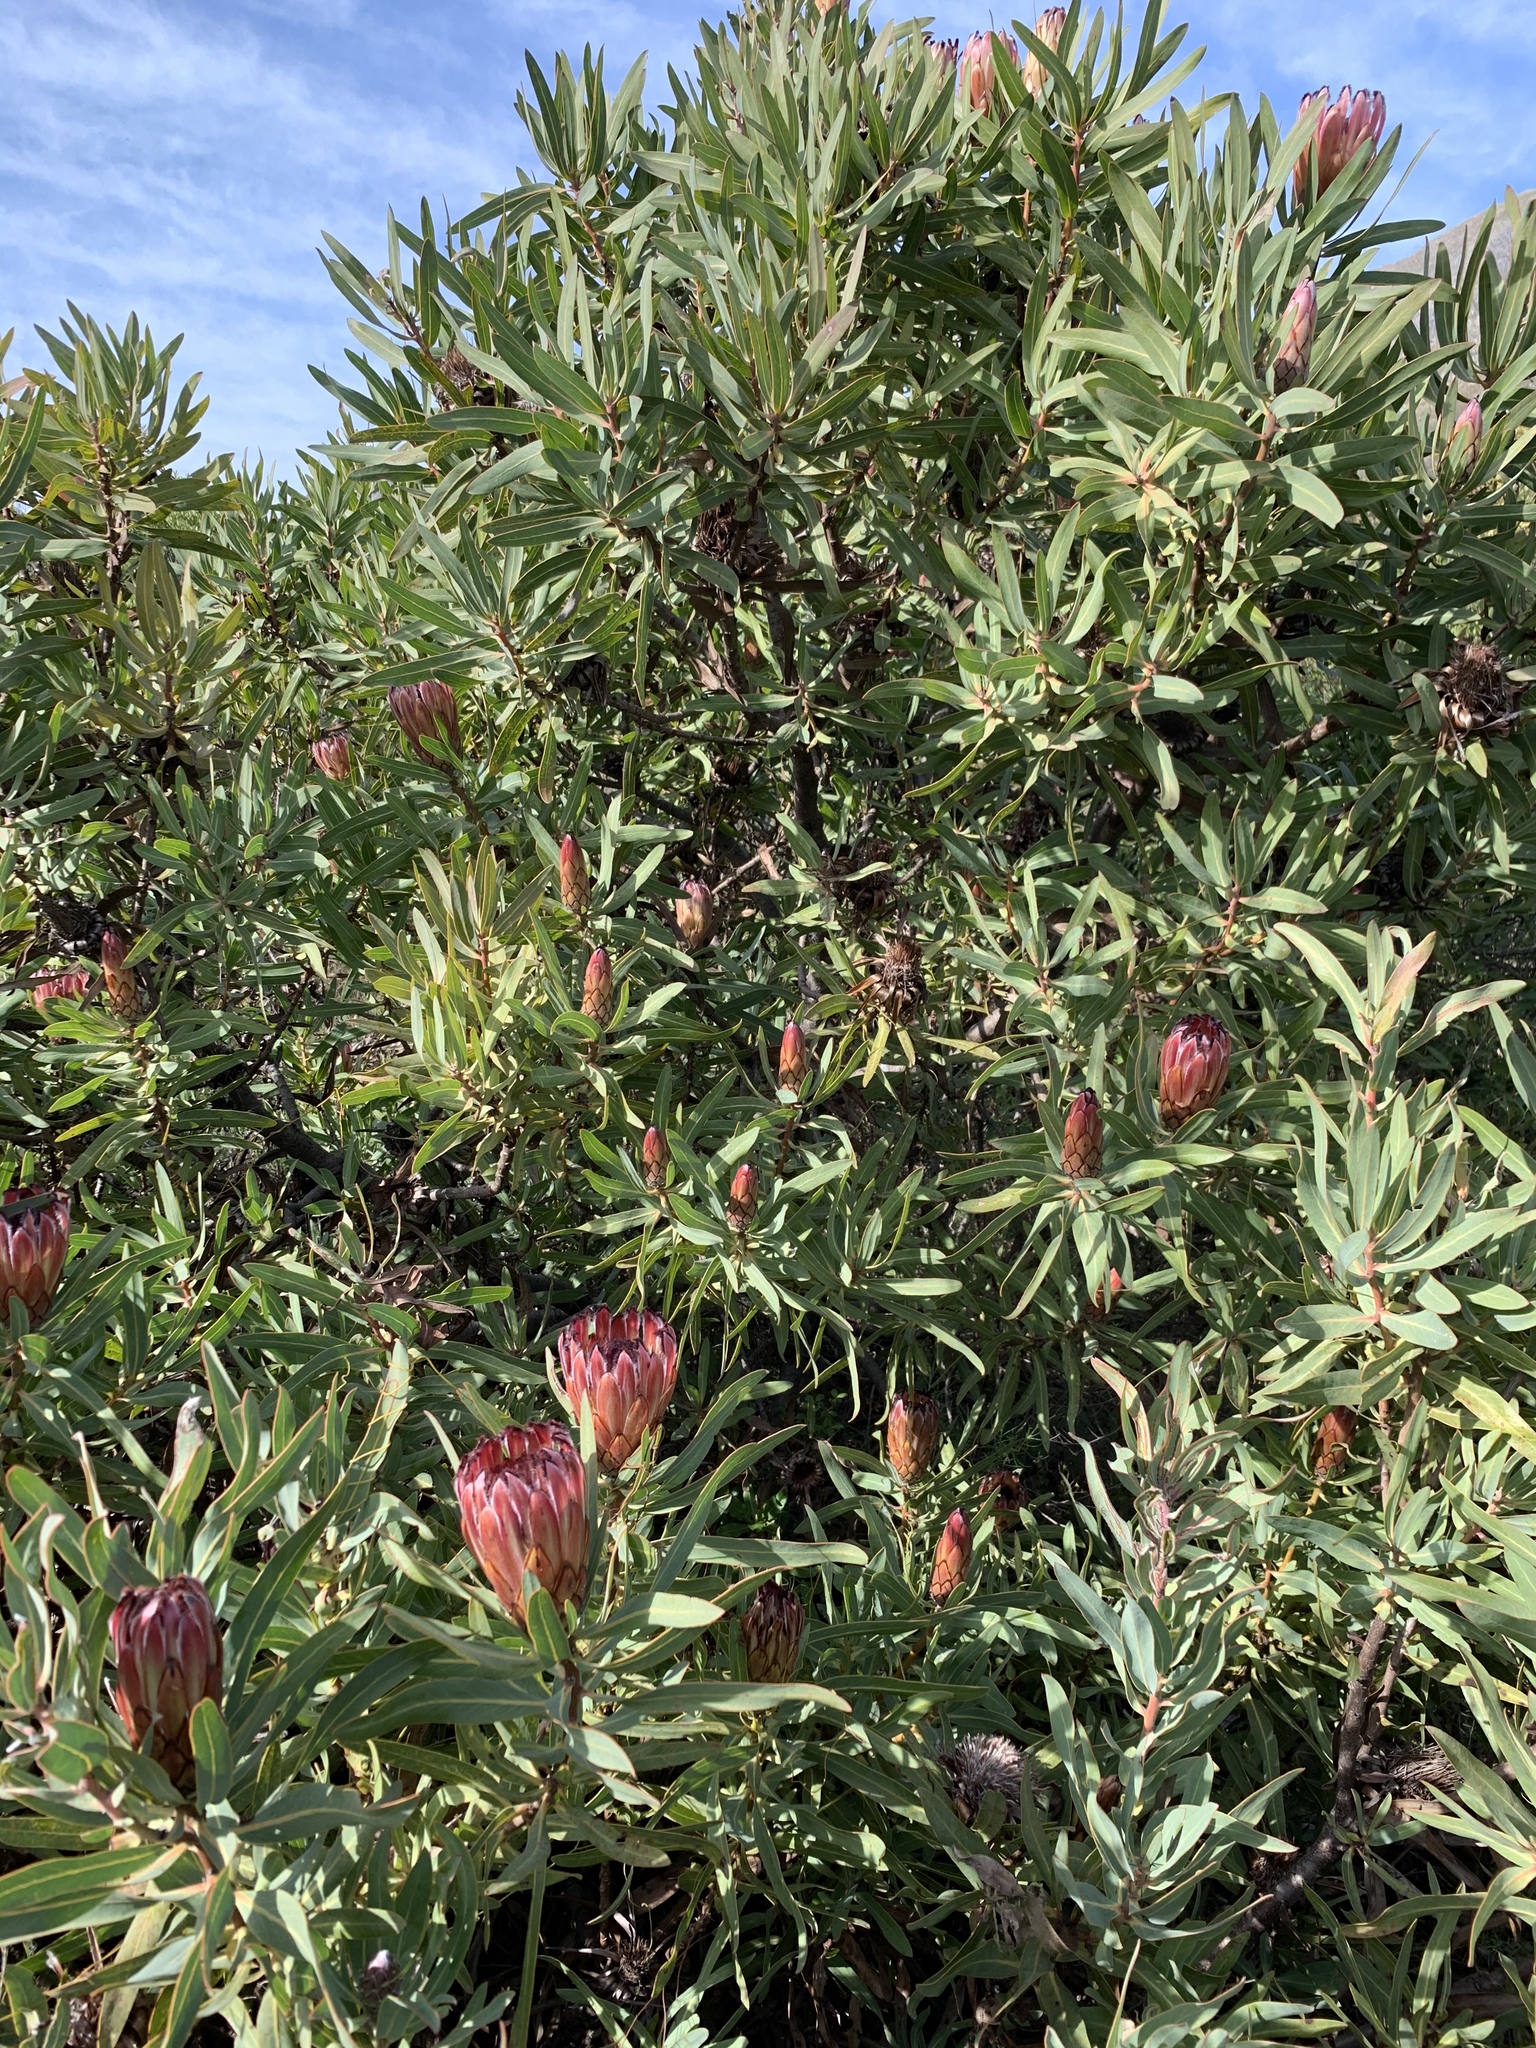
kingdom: Plantae
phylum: Tracheophyta
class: Magnoliopsida
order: Proteales
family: Proteaceae
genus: Protea
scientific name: Protea burchellii
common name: Burchell's sugarbush
